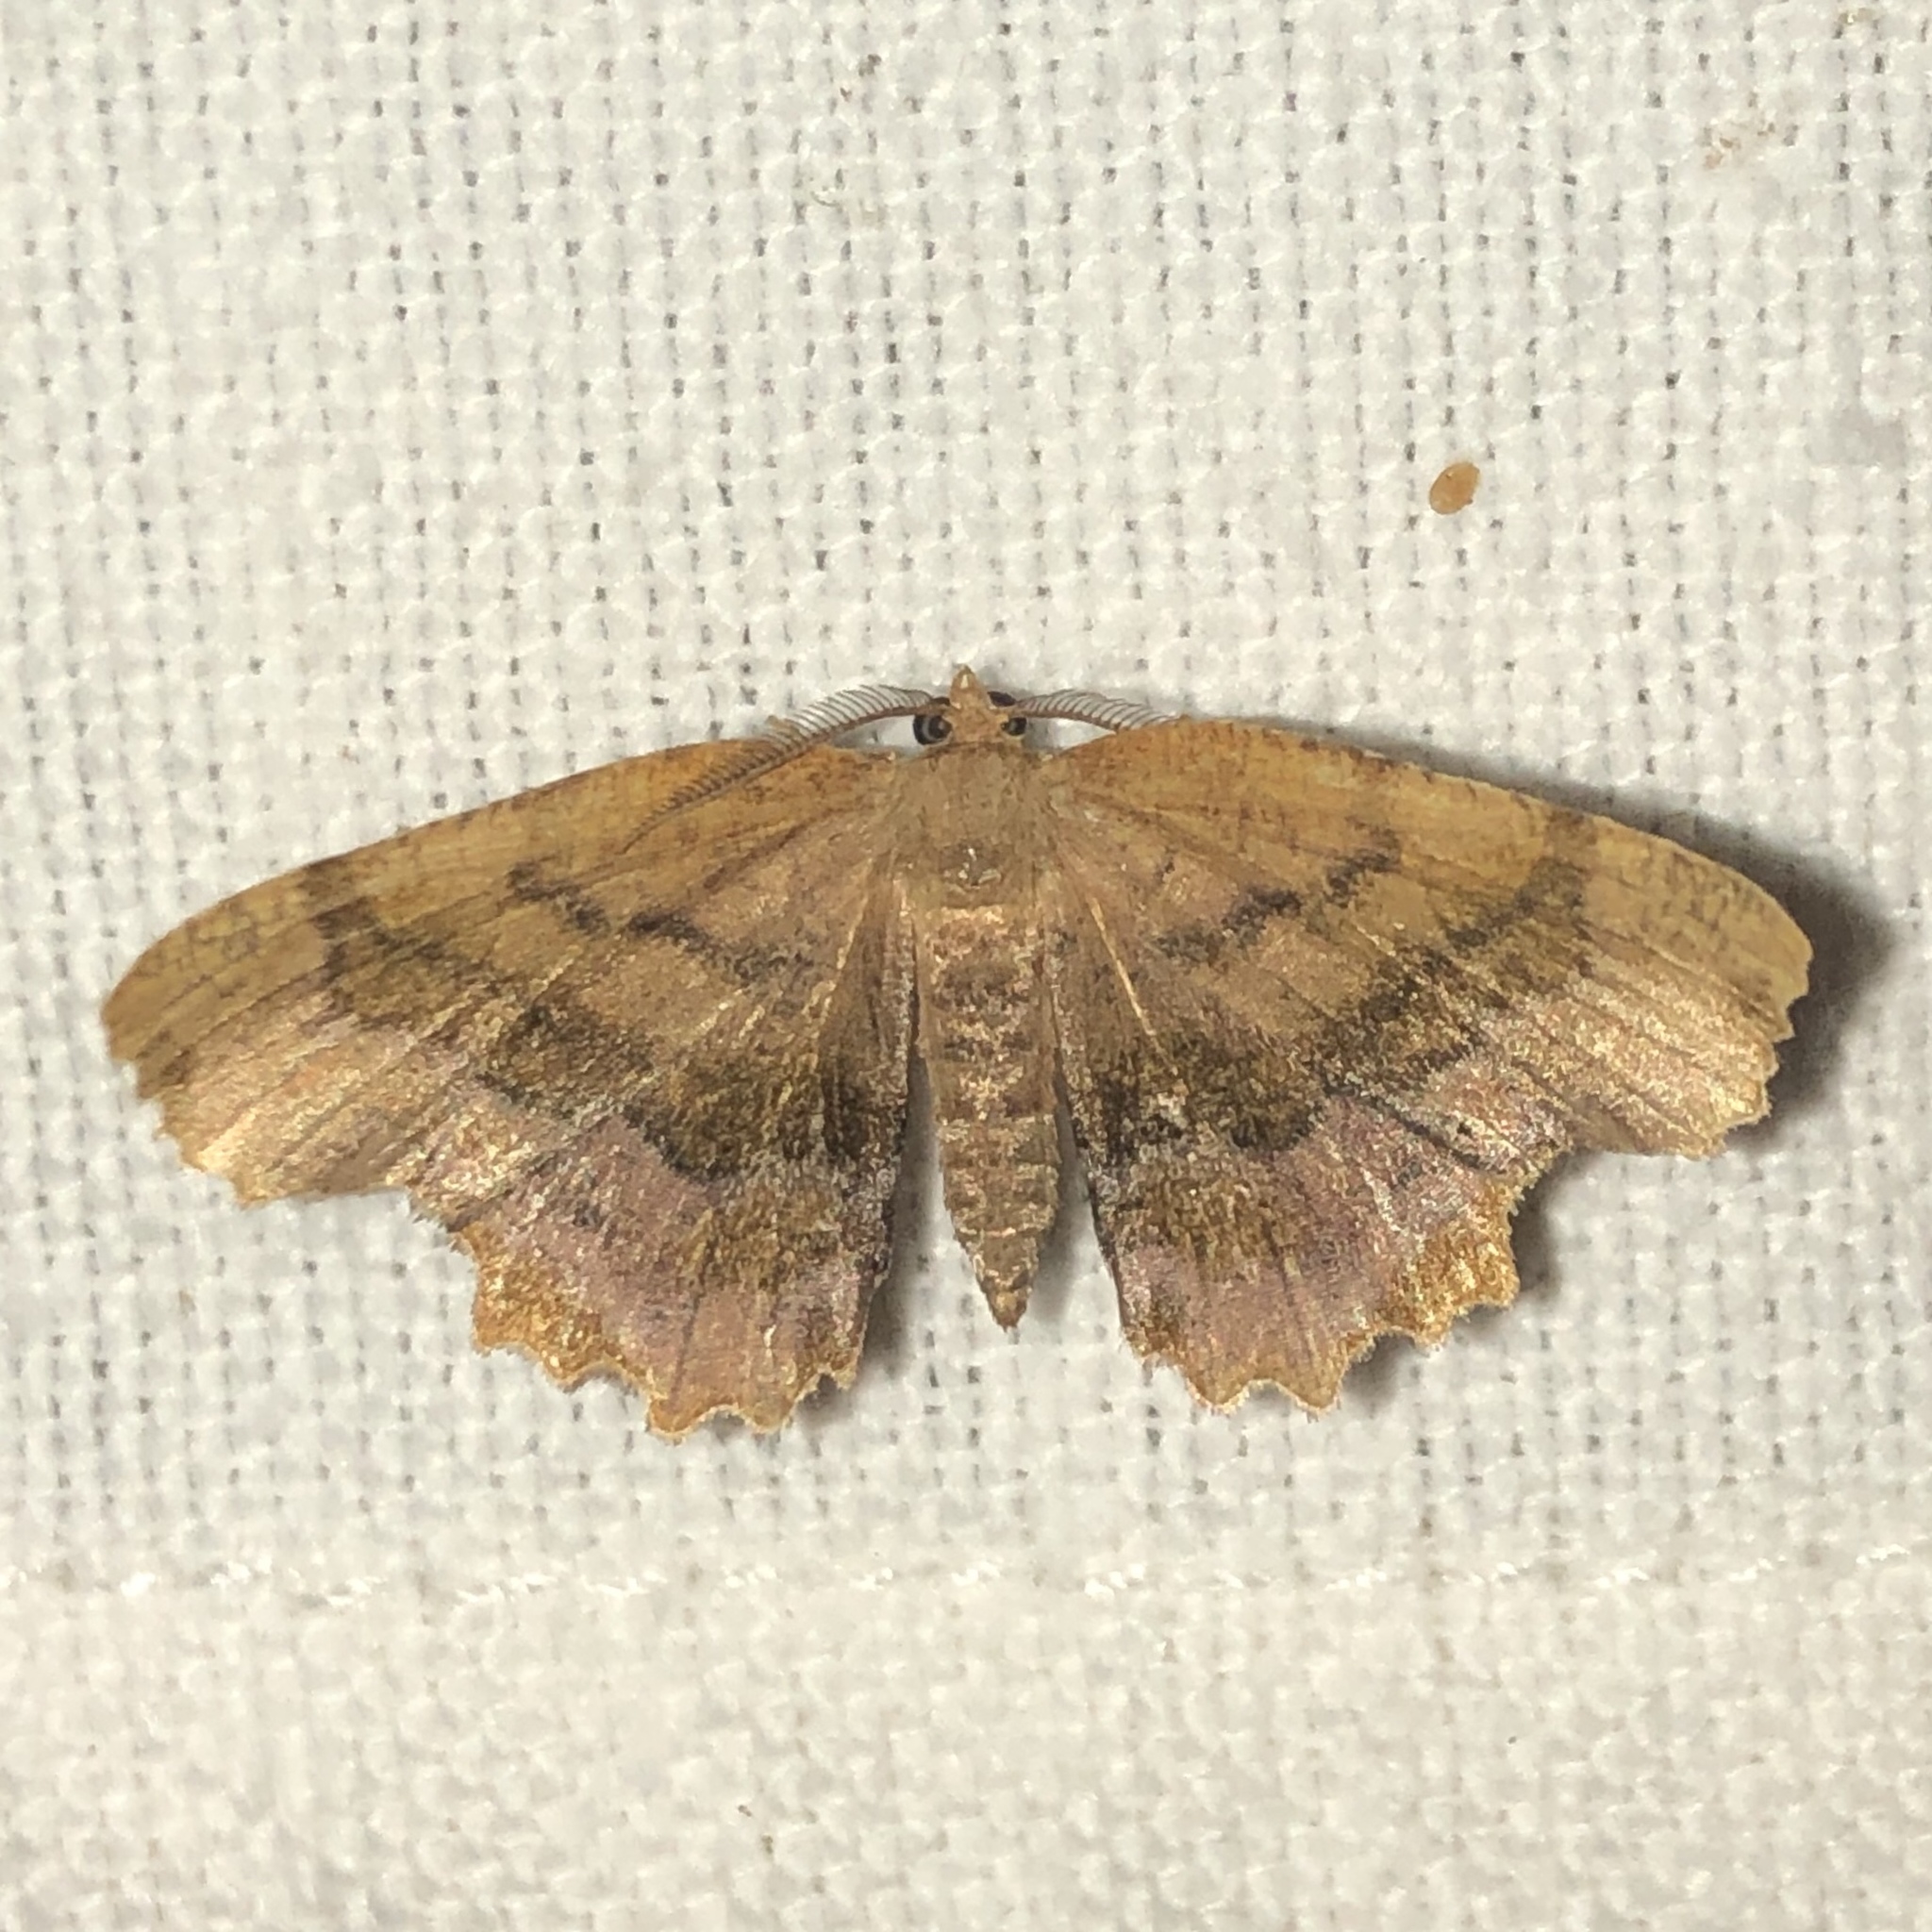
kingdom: Animalia
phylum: Arthropoda
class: Insecta
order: Lepidoptera
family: Geometridae
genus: Cepphis
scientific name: Cepphis armataria
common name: Scallop moth
